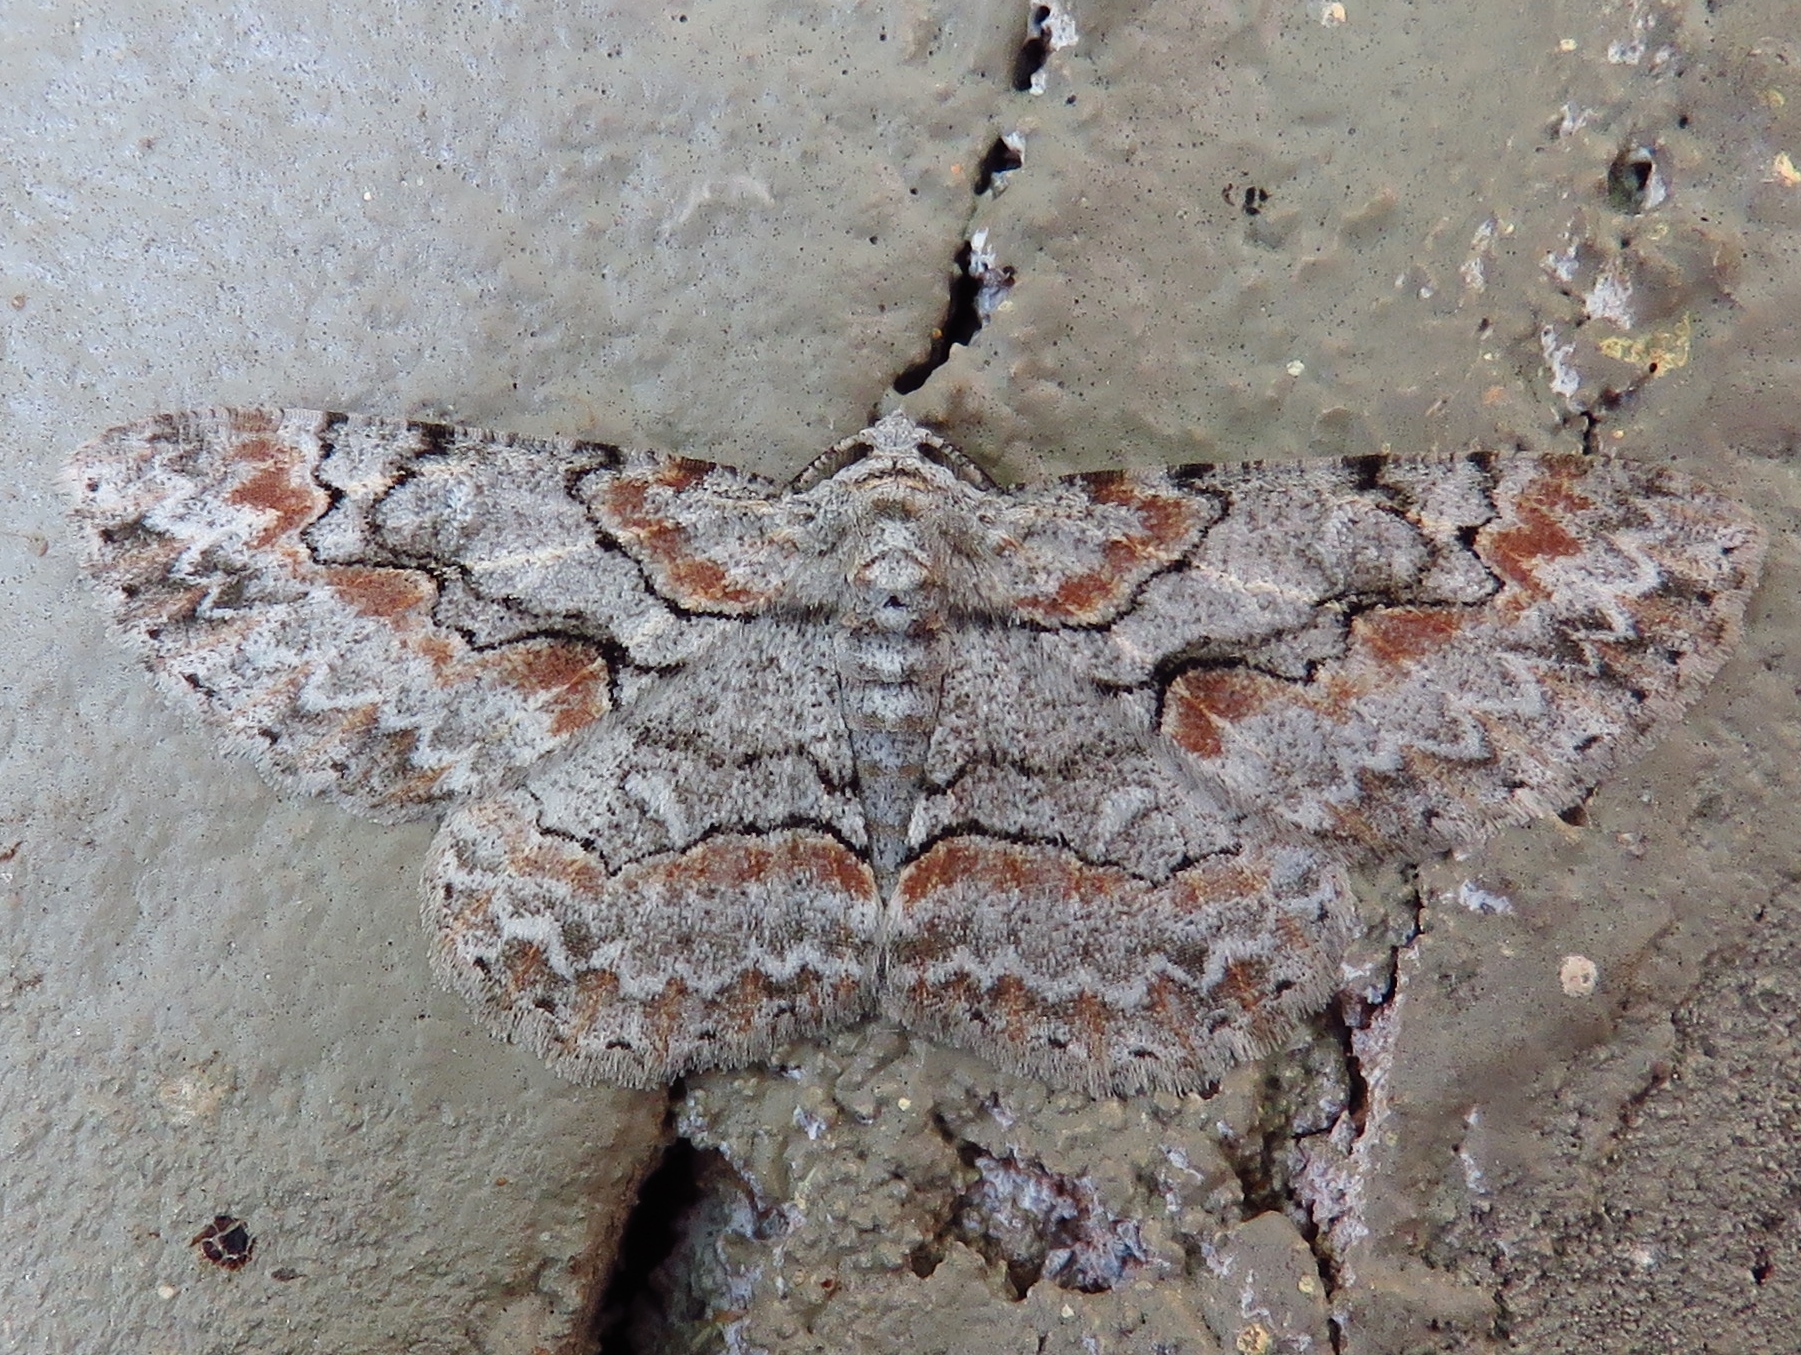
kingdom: Animalia
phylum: Arthropoda
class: Insecta
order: Lepidoptera
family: Geometridae
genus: Iridopsis
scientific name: Iridopsis defectaria
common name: Brown-shaded gray
